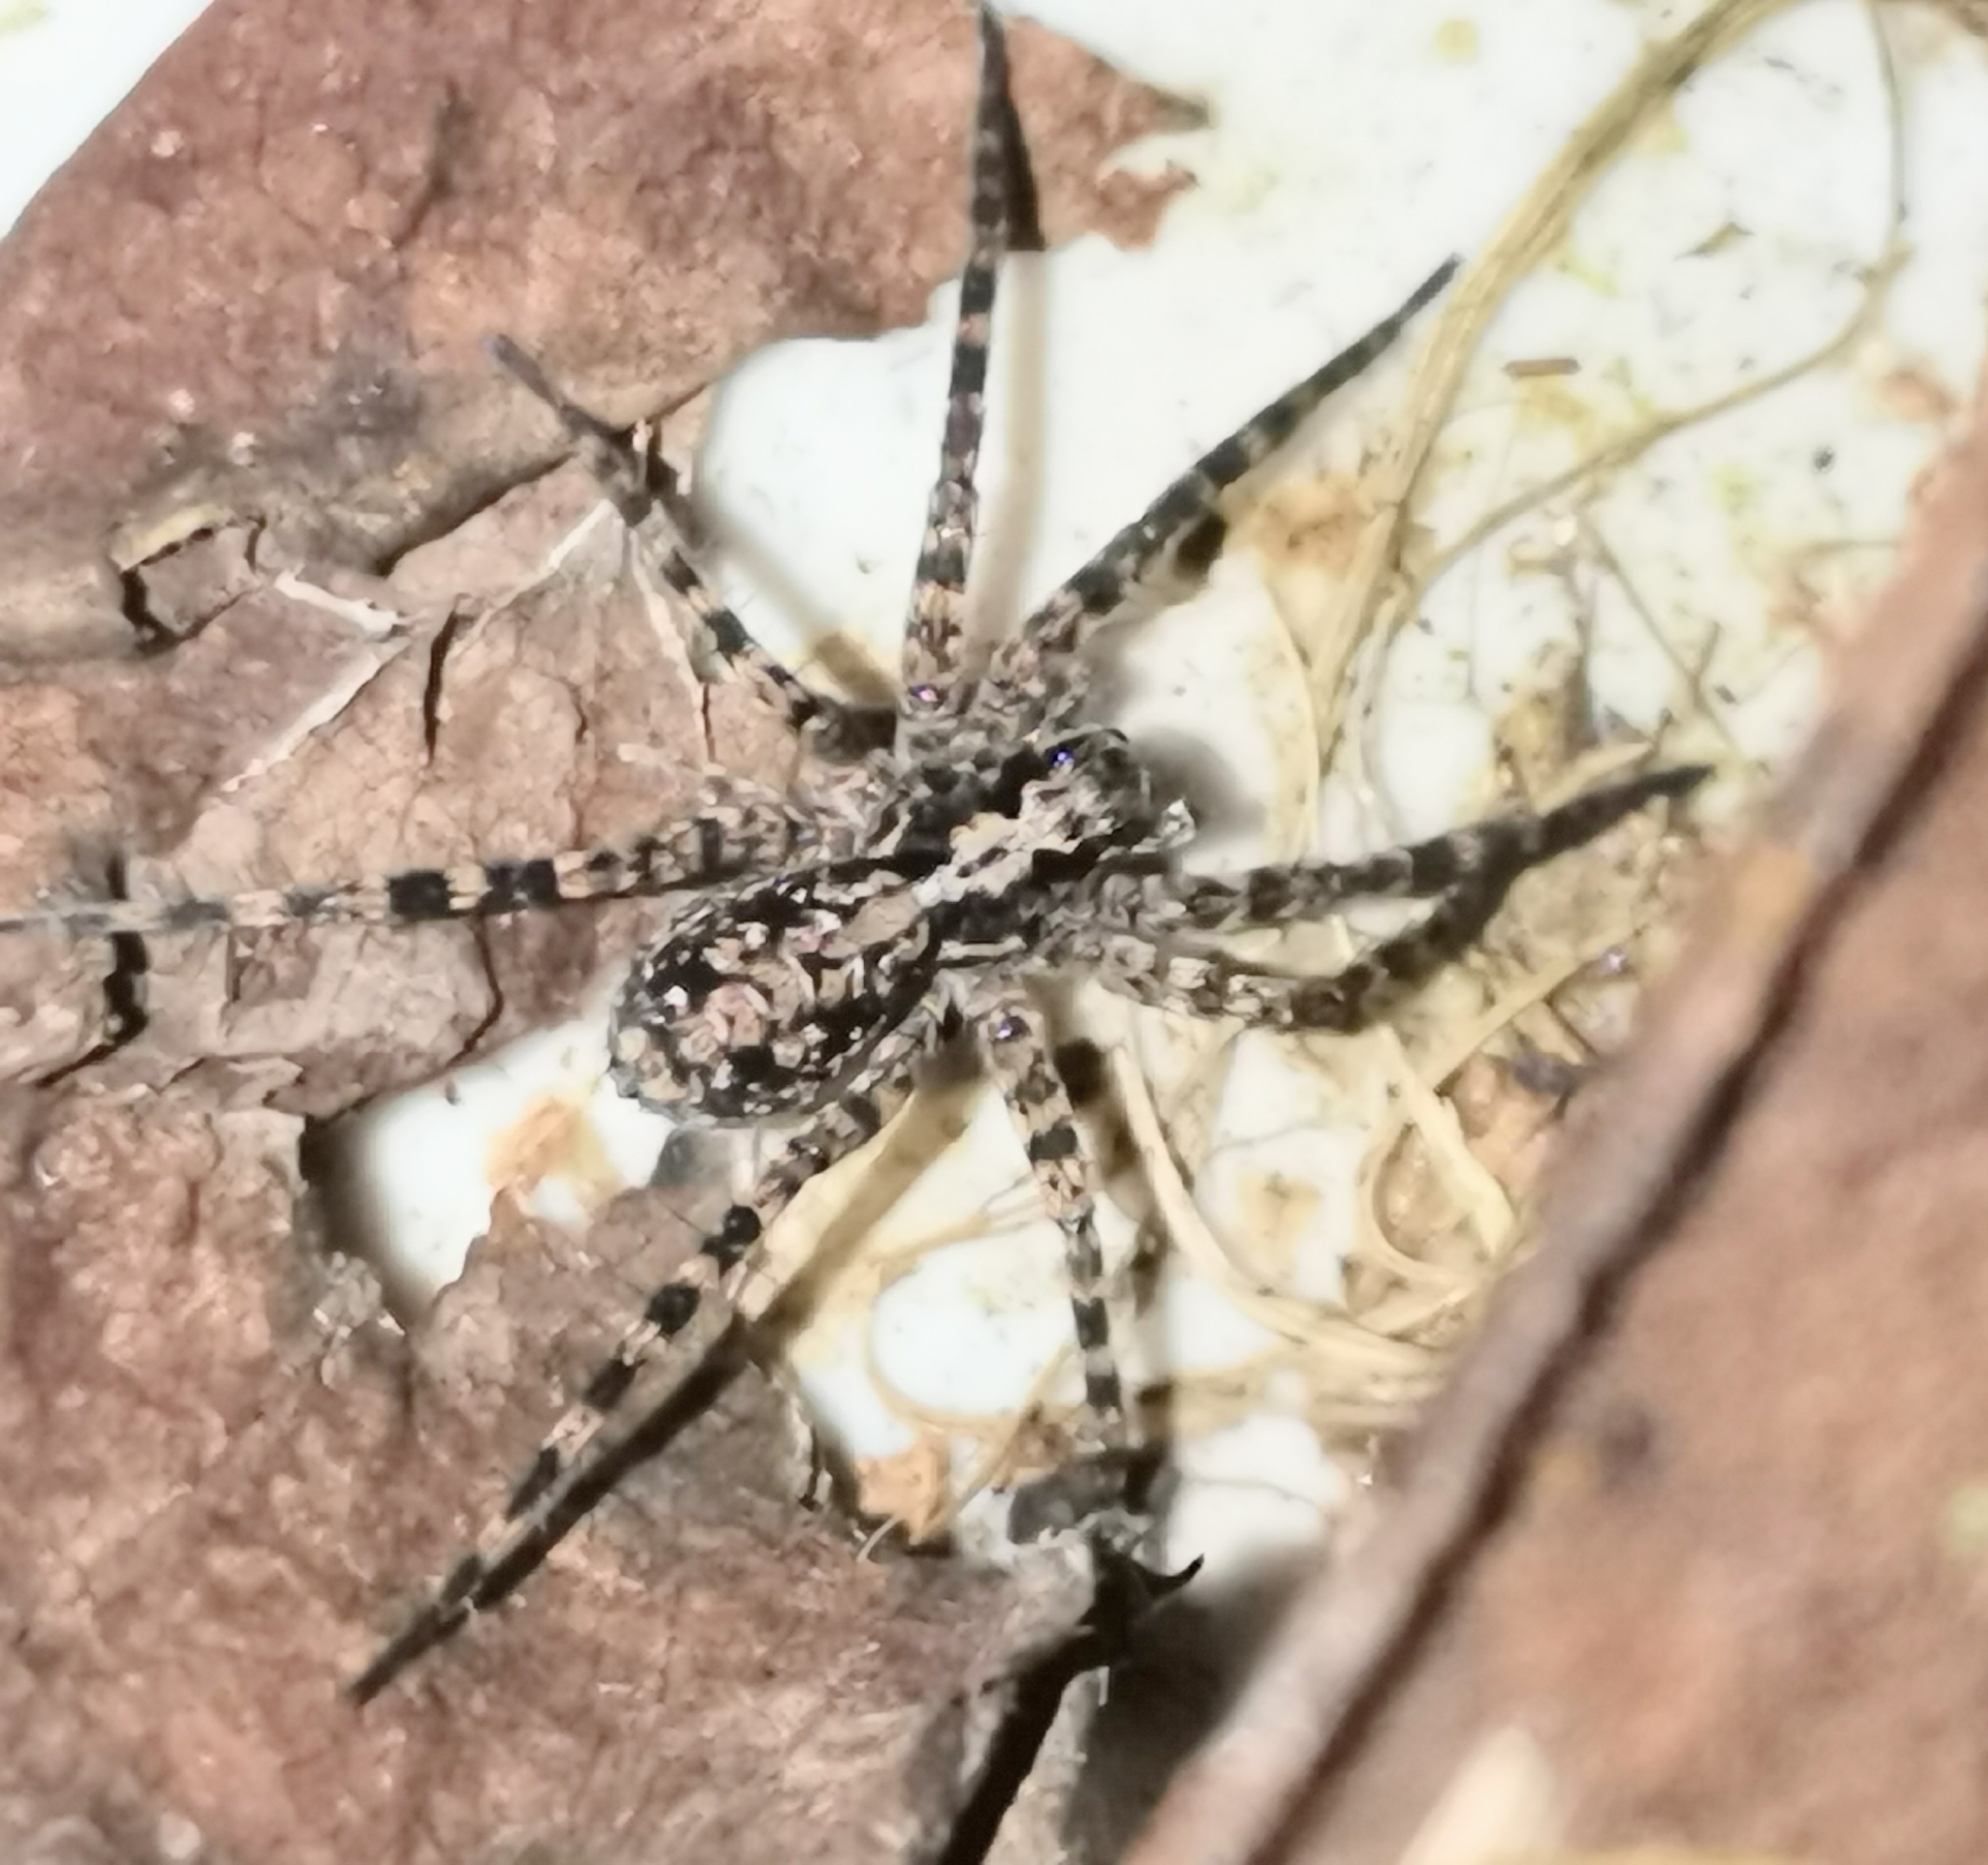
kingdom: Animalia
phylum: Arthropoda
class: Arachnida
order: Araneae
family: Lycosidae
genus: Acantholycosa
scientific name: Acantholycosa lignaria
